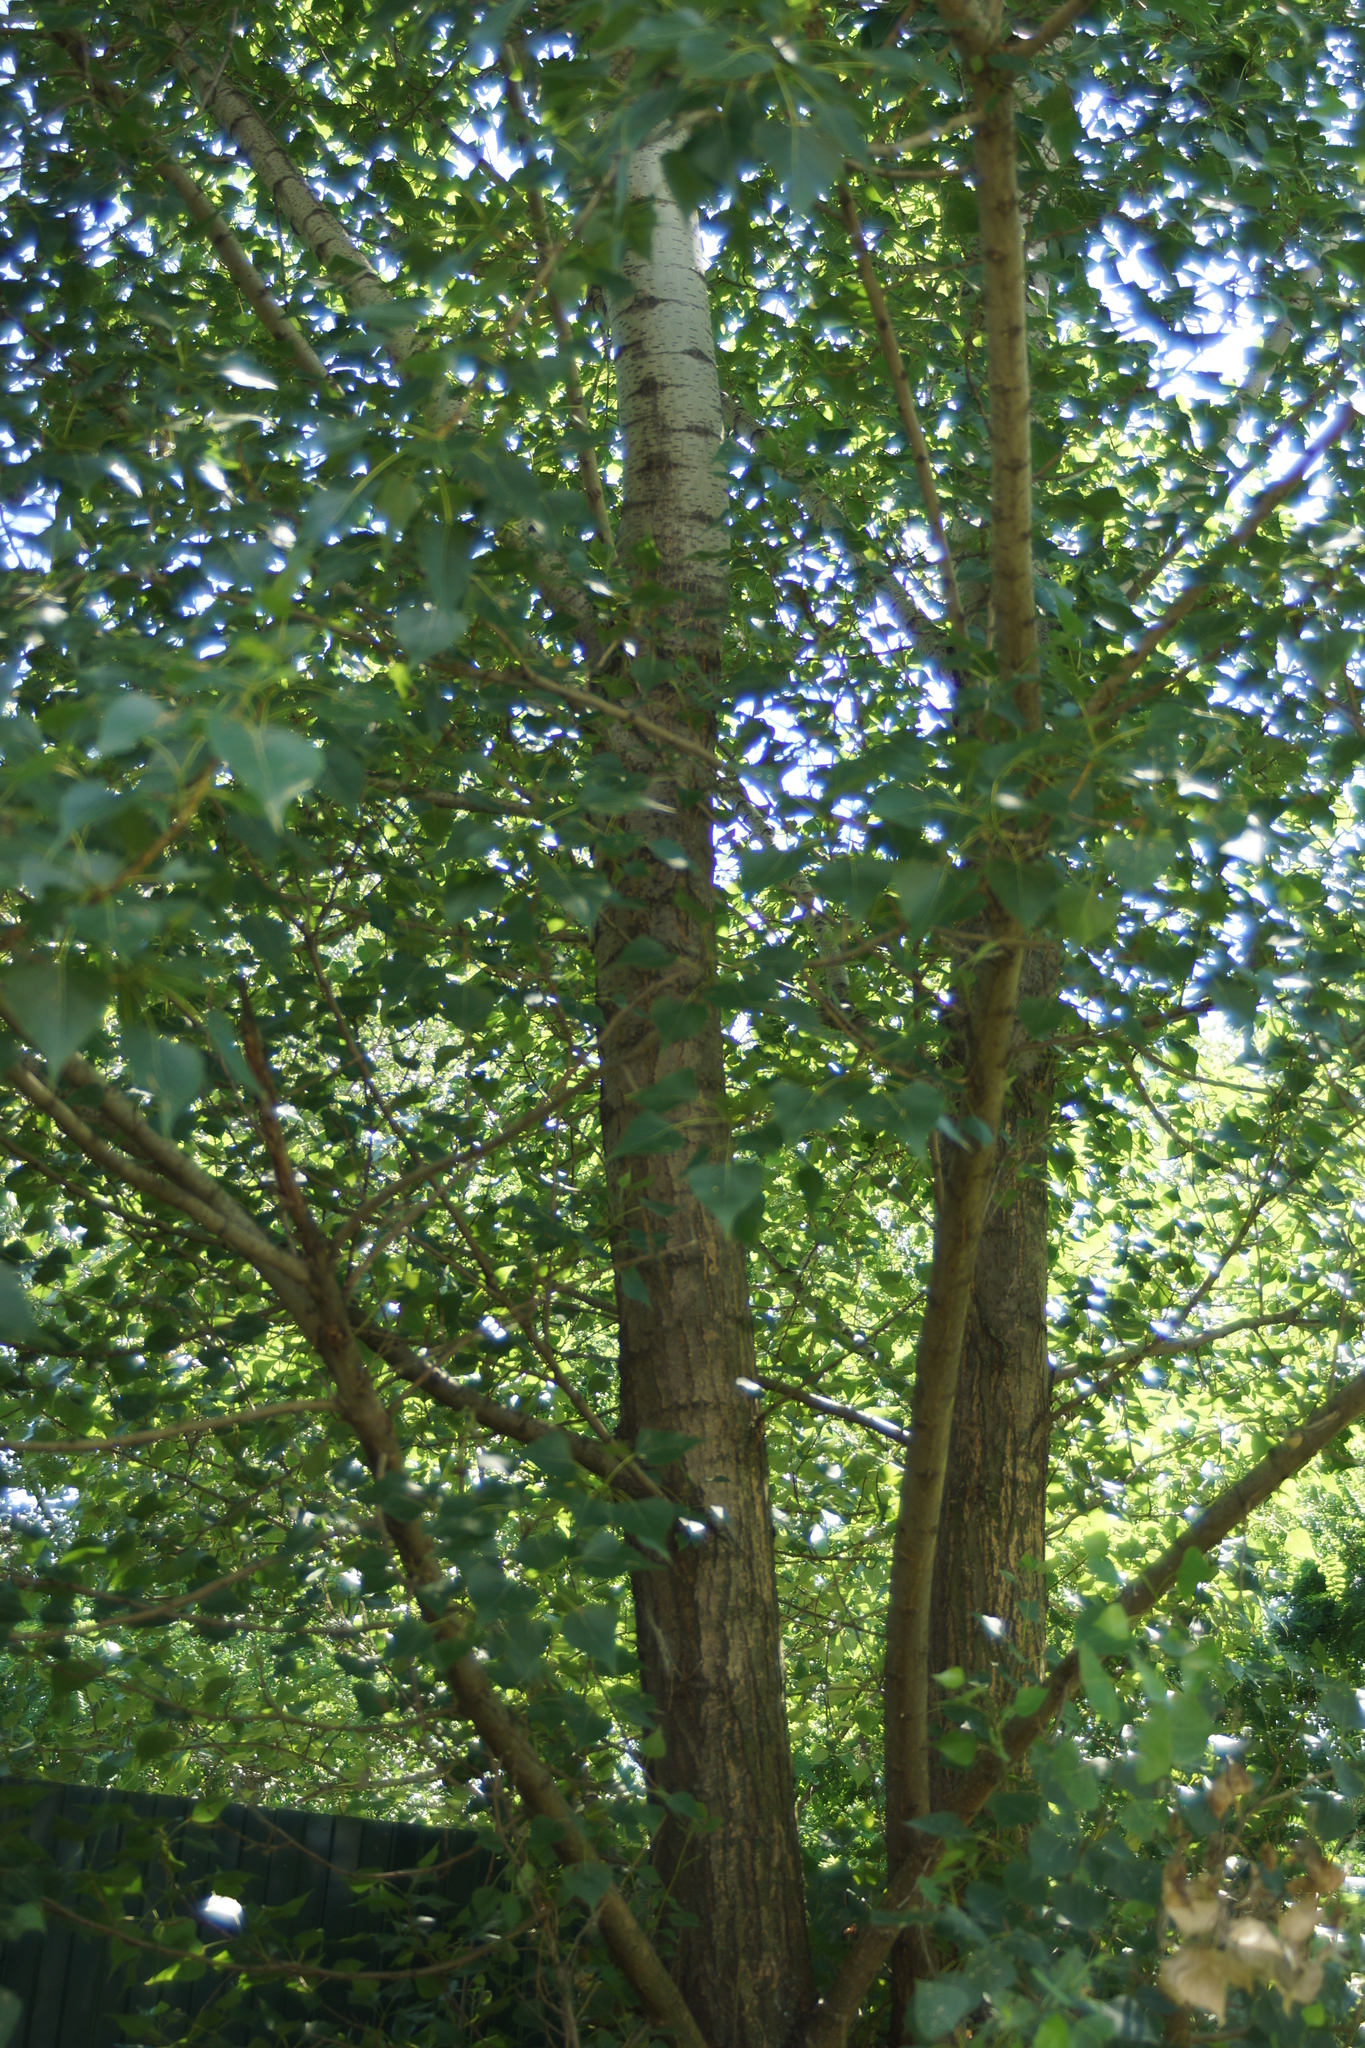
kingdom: Plantae
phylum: Tracheophyta
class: Magnoliopsida
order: Malpighiales
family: Salicaceae
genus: Populus
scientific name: Populus nigra
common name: Black poplar
